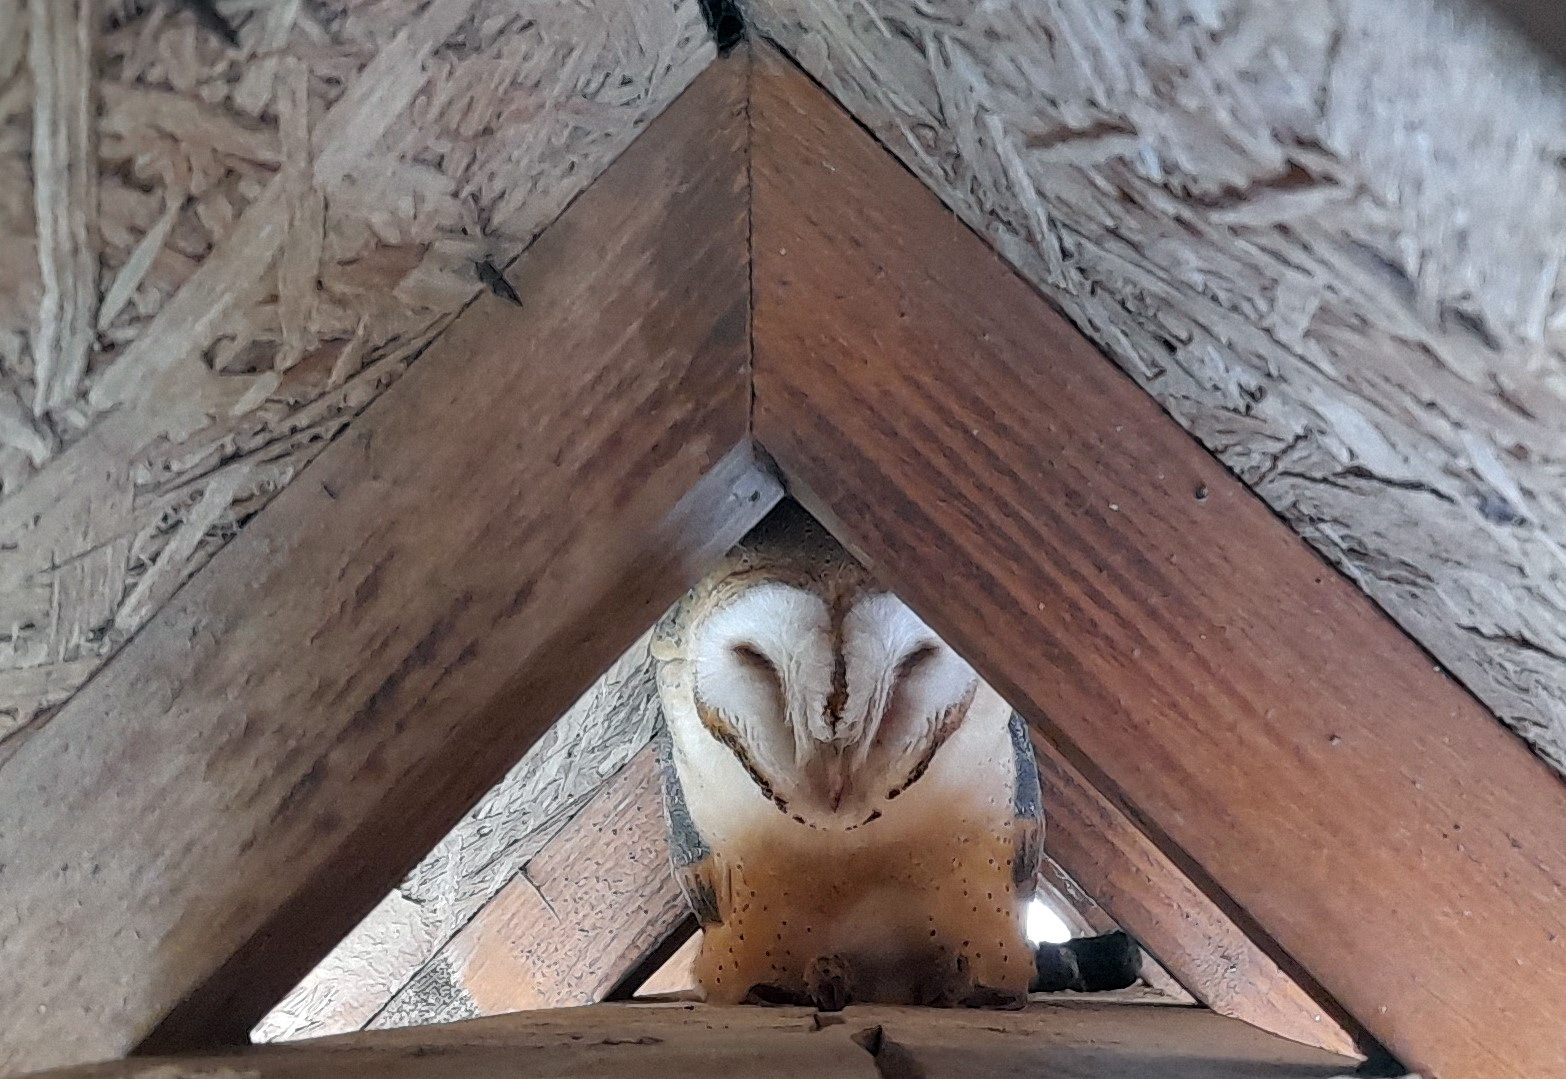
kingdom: Animalia
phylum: Chordata
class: Aves
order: Strigiformes
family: Tytonidae
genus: Tyto
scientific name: Tyto alba
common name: Barn owl
